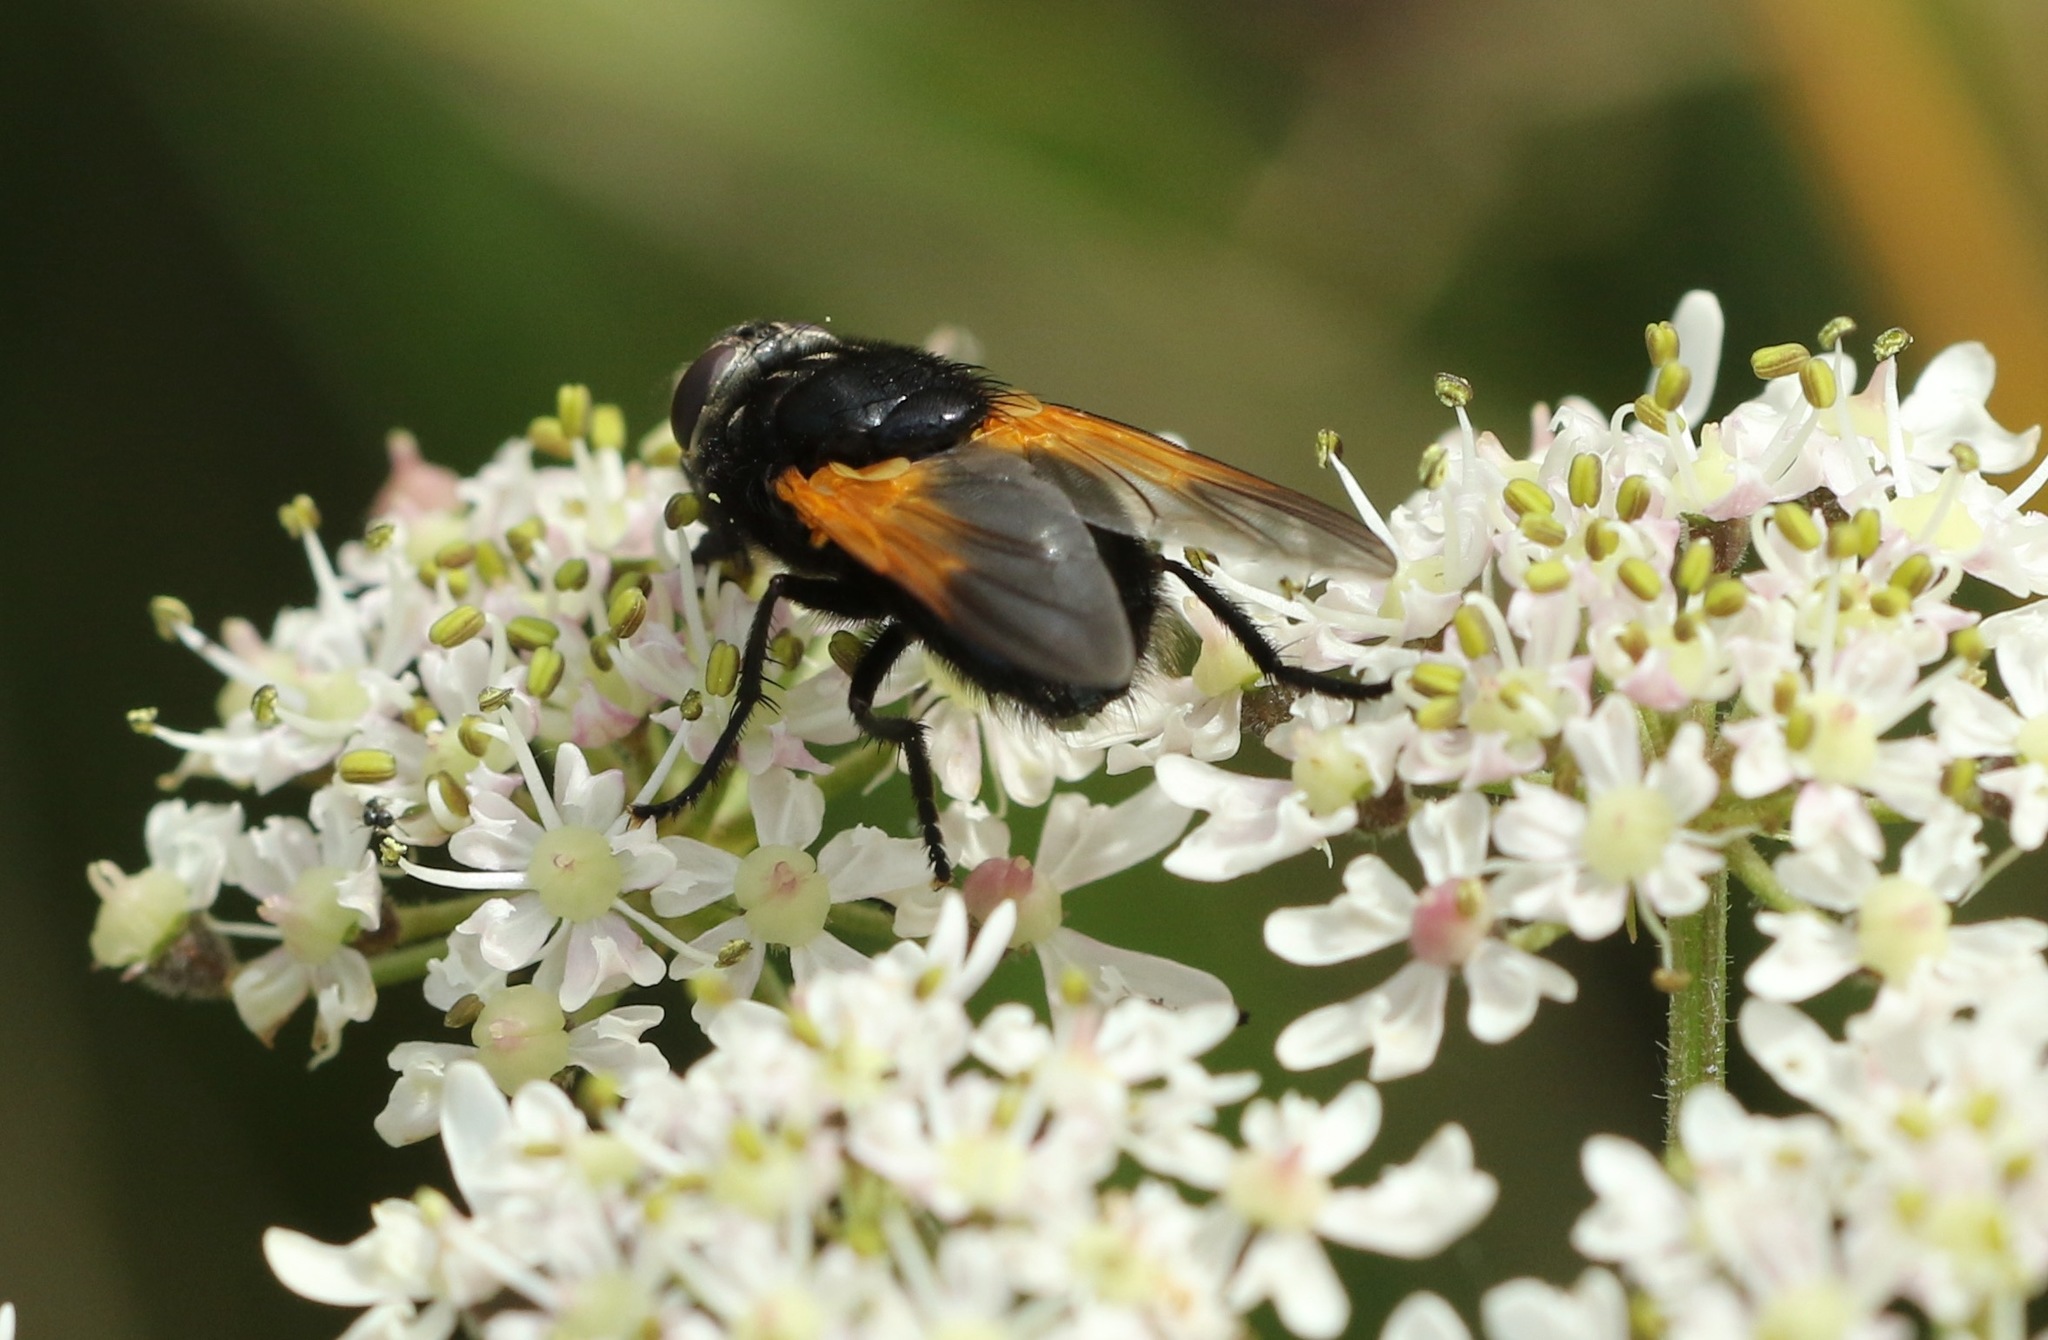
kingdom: Animalia
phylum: Arthropoda
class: Insecta
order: Diptera
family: Muscidae
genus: Mesembrina
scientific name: Mesembrina meridiana
